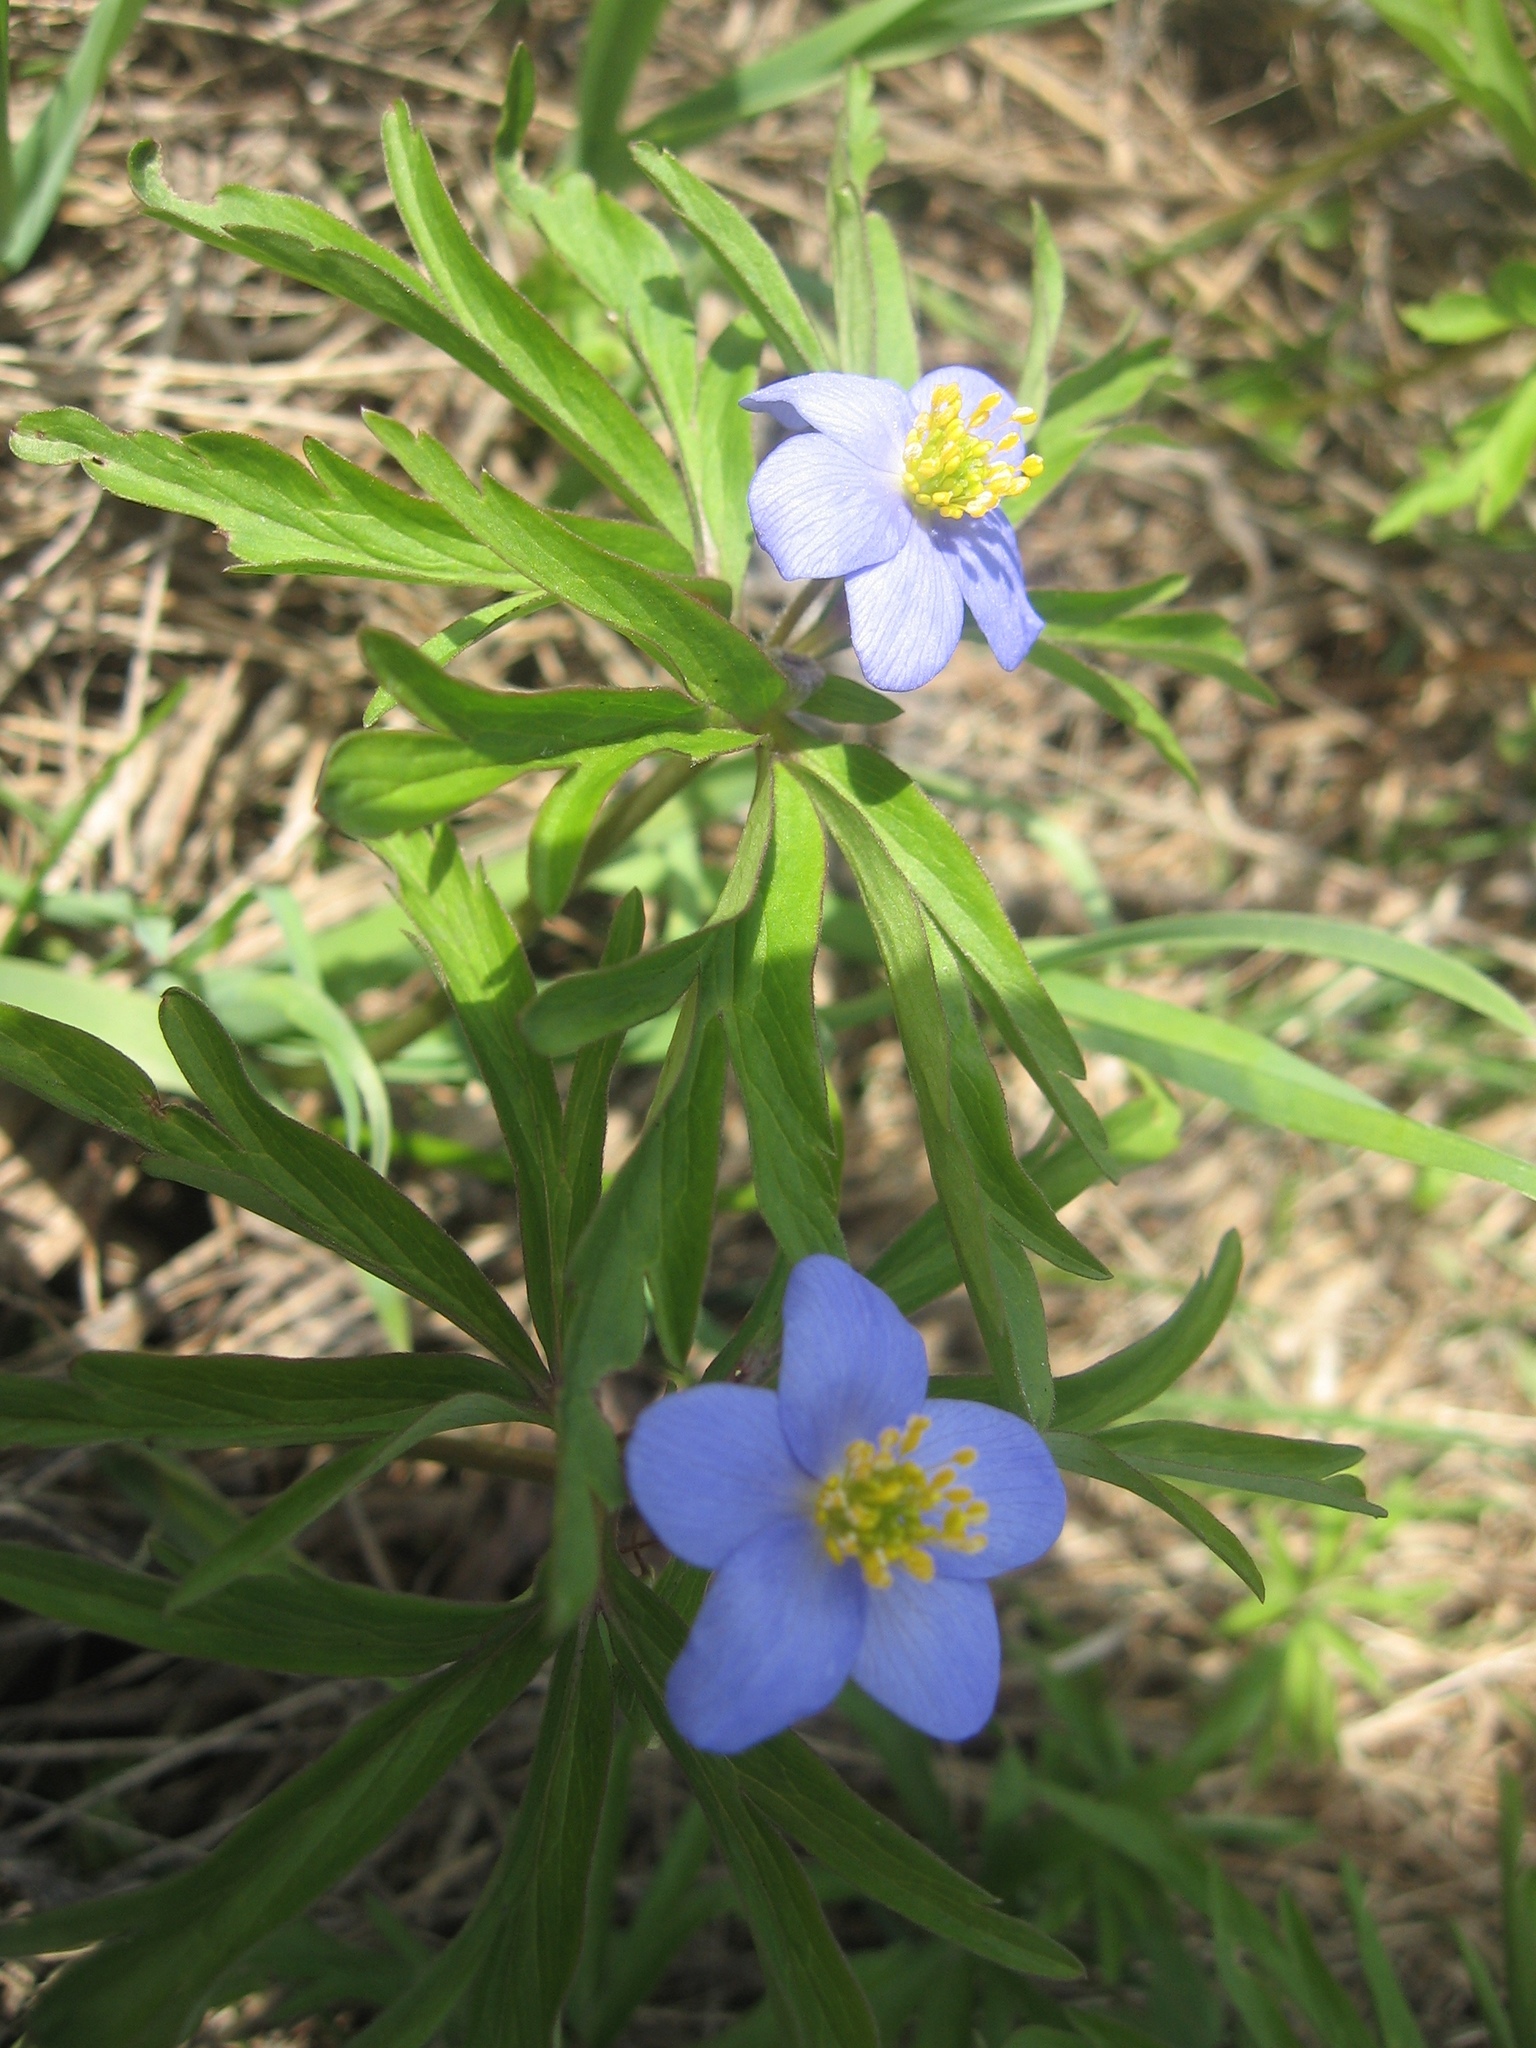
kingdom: Plantae
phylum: Tracheophyta
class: Magnoliopsida
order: Ranunculales
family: Ranunculaceae
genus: Anemone
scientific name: Anemone caerulea
